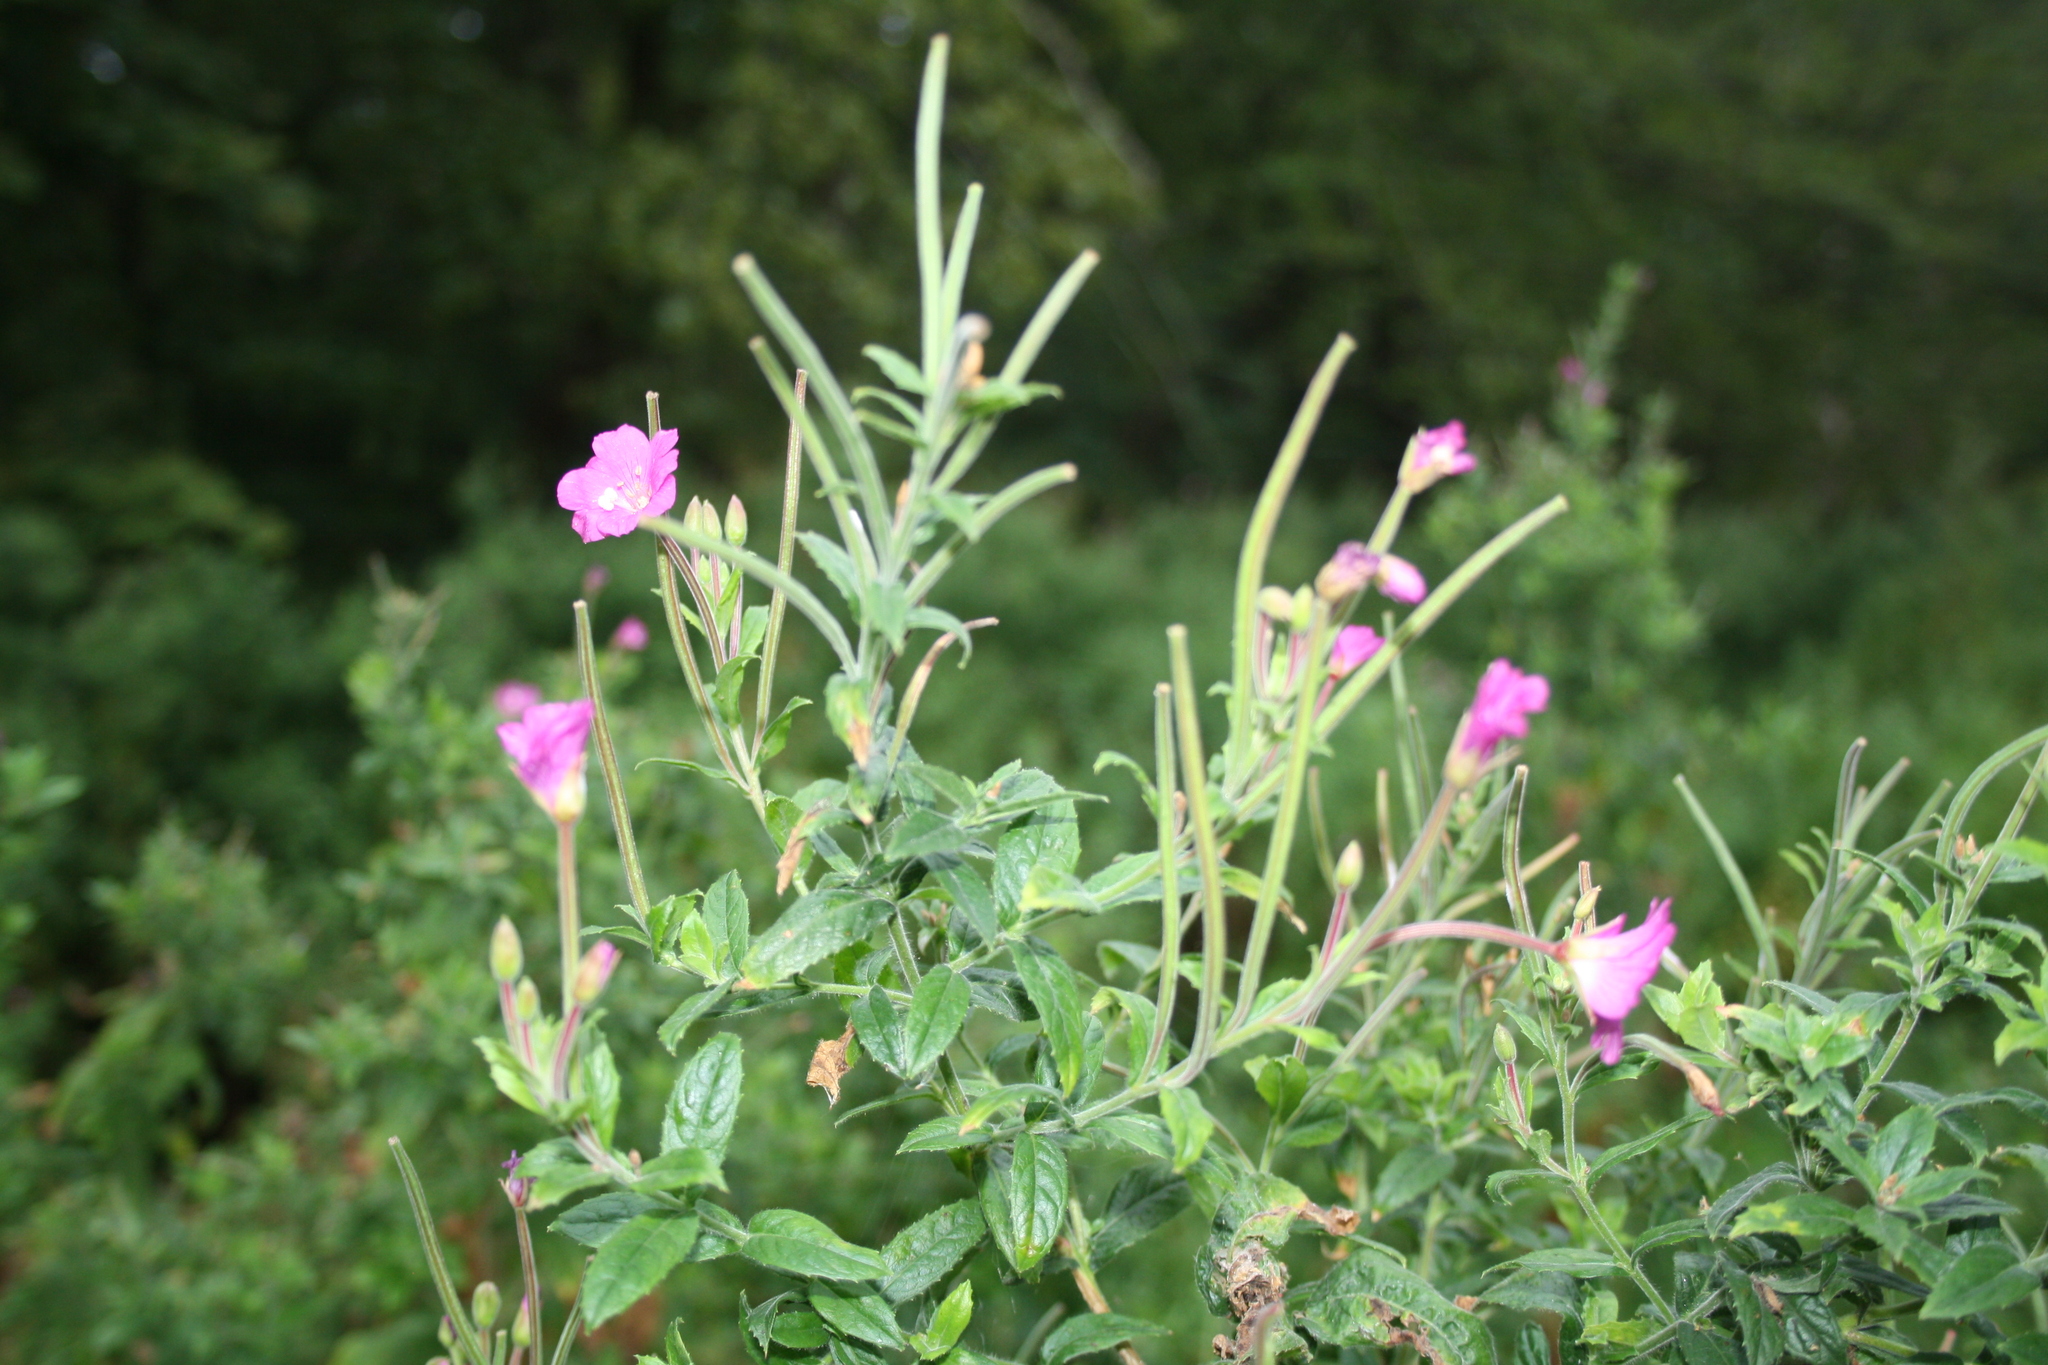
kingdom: Plantae
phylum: Tracheophyta
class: Magnoliopsida
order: Myrtales
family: Onagraceae
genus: Epilobium
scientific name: Epilobium hirsutum
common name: Great willowherb
